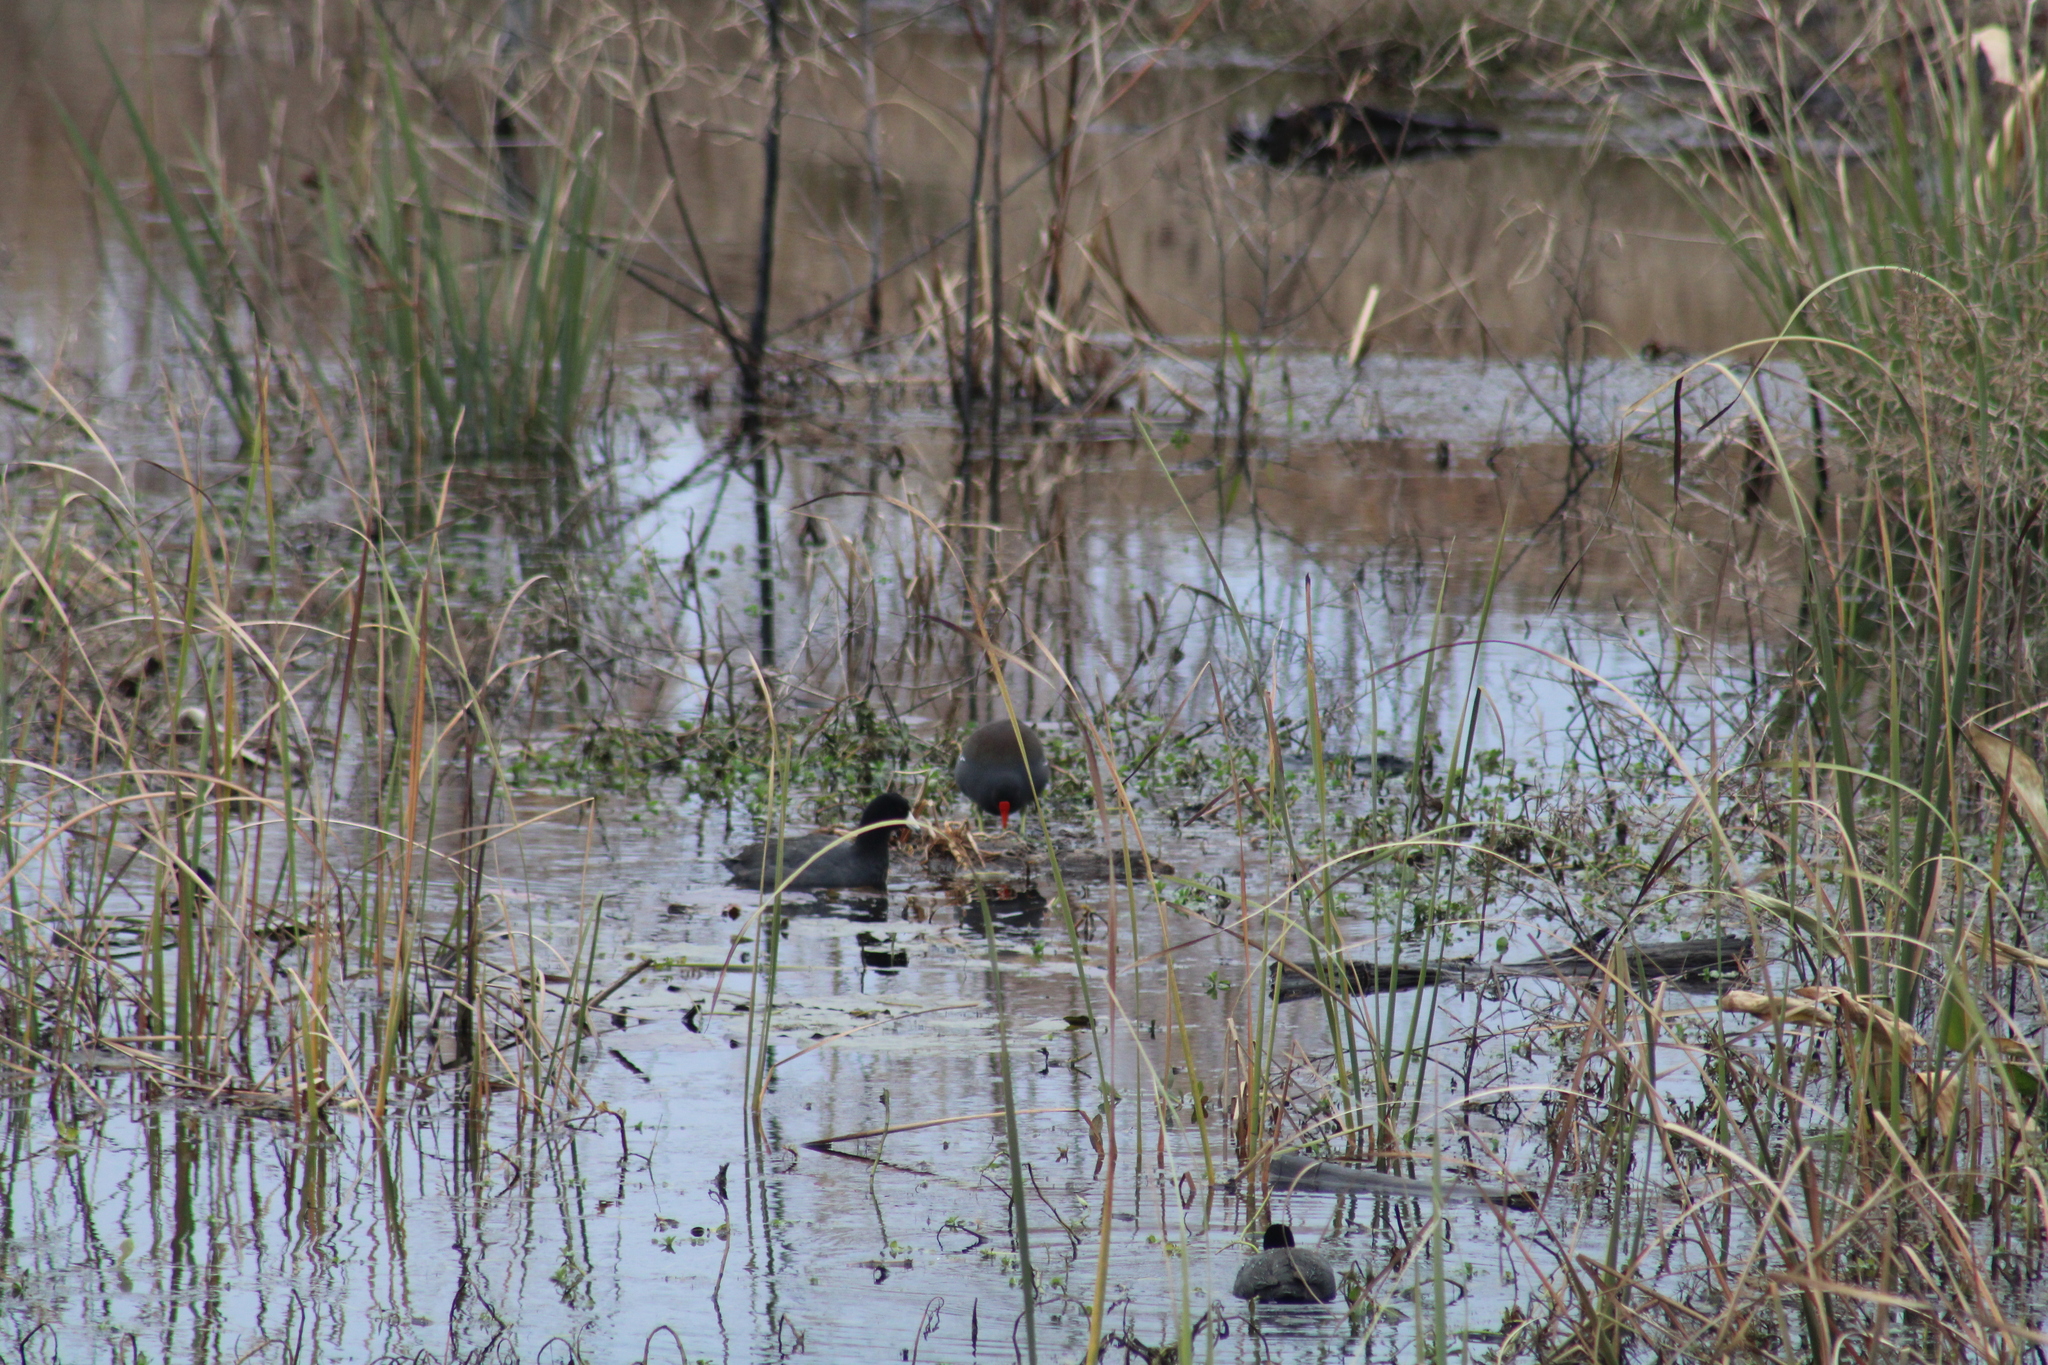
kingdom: Animalia
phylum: Chordata
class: Aves
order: Gruiformes
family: Rallidae
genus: Gallinula
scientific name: Gallinula chloropus
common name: Common moorhen
